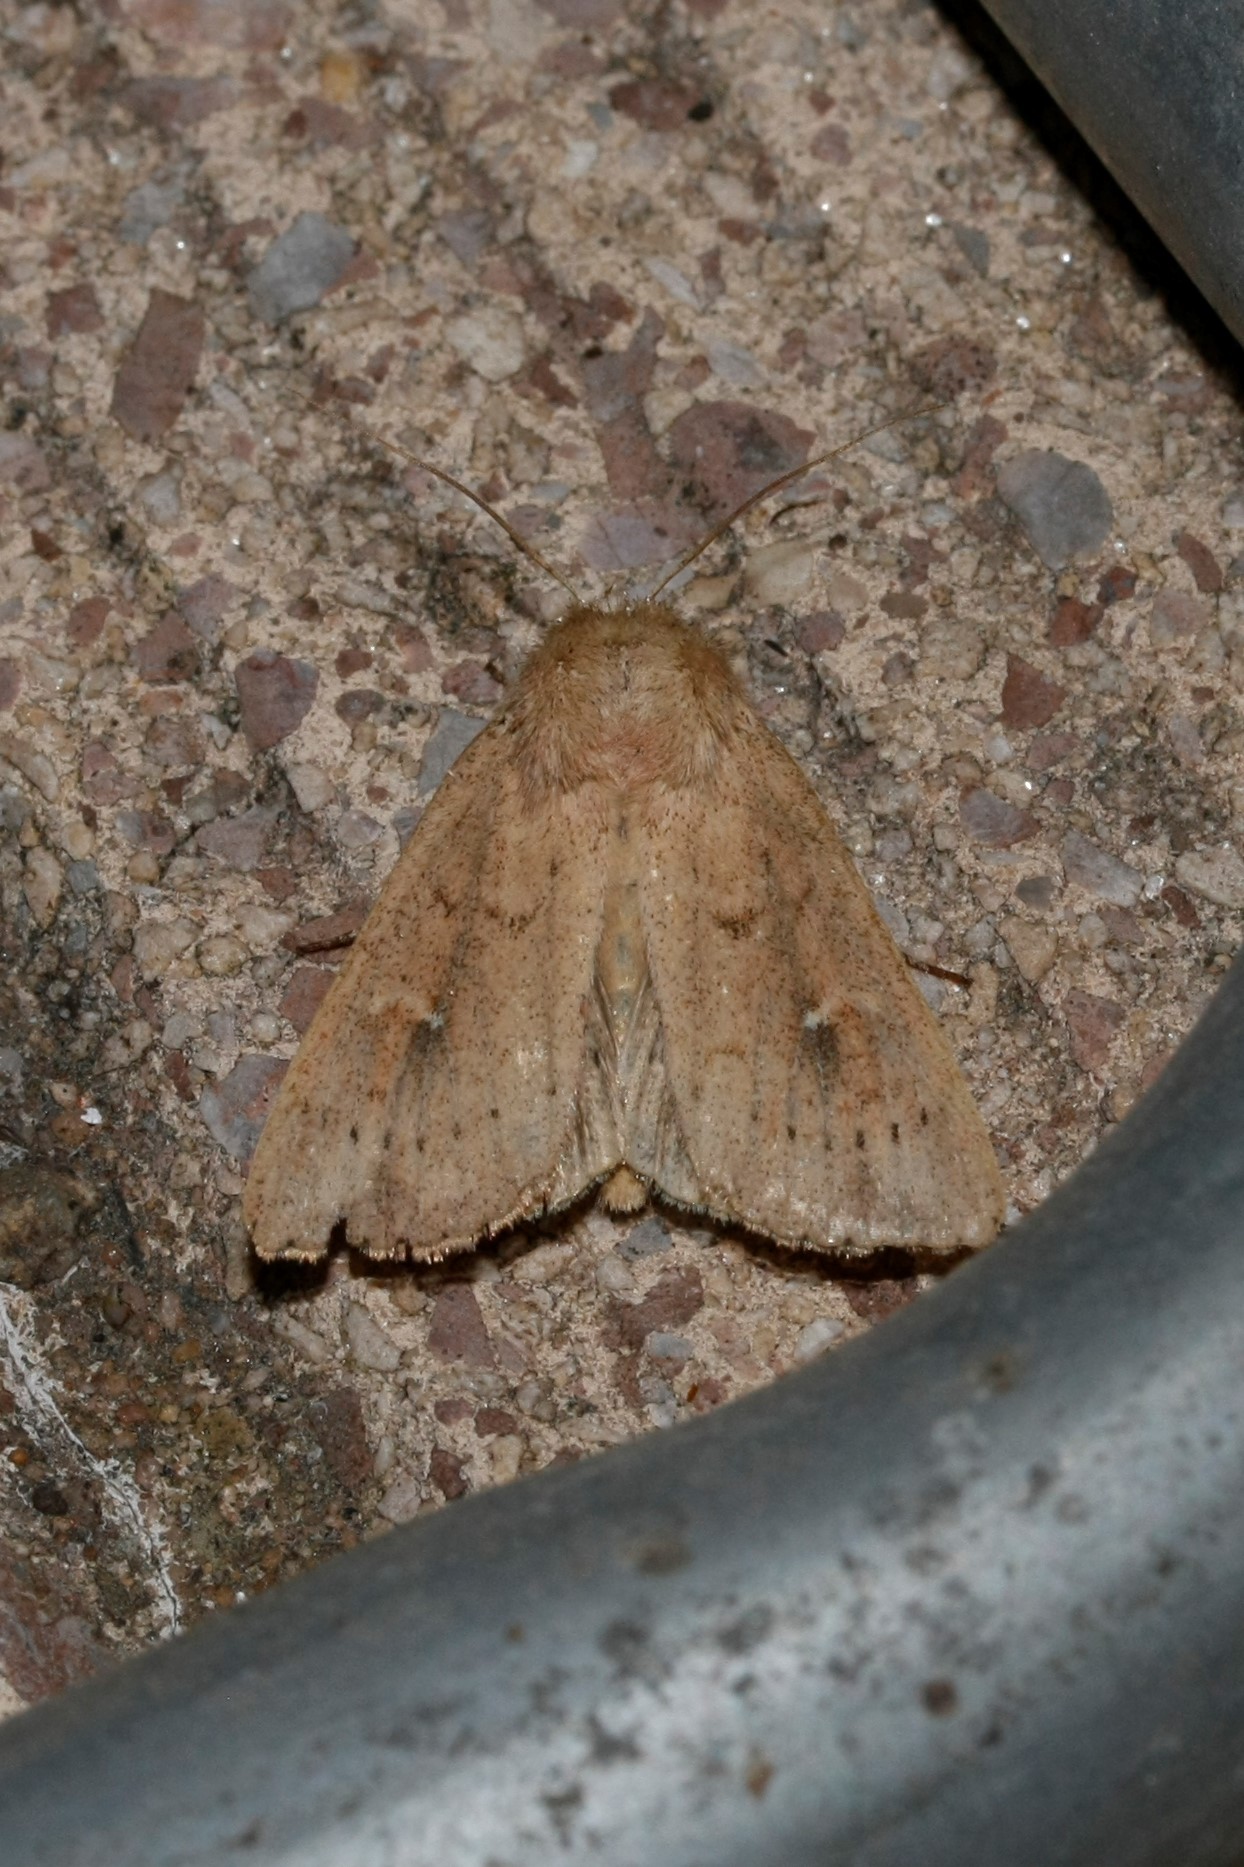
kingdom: Animalia
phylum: Arthropoda
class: Insecta
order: Lepidoptera
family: Noctuidae
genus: Mythimna
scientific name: Mythimna ferrago
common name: Clay
